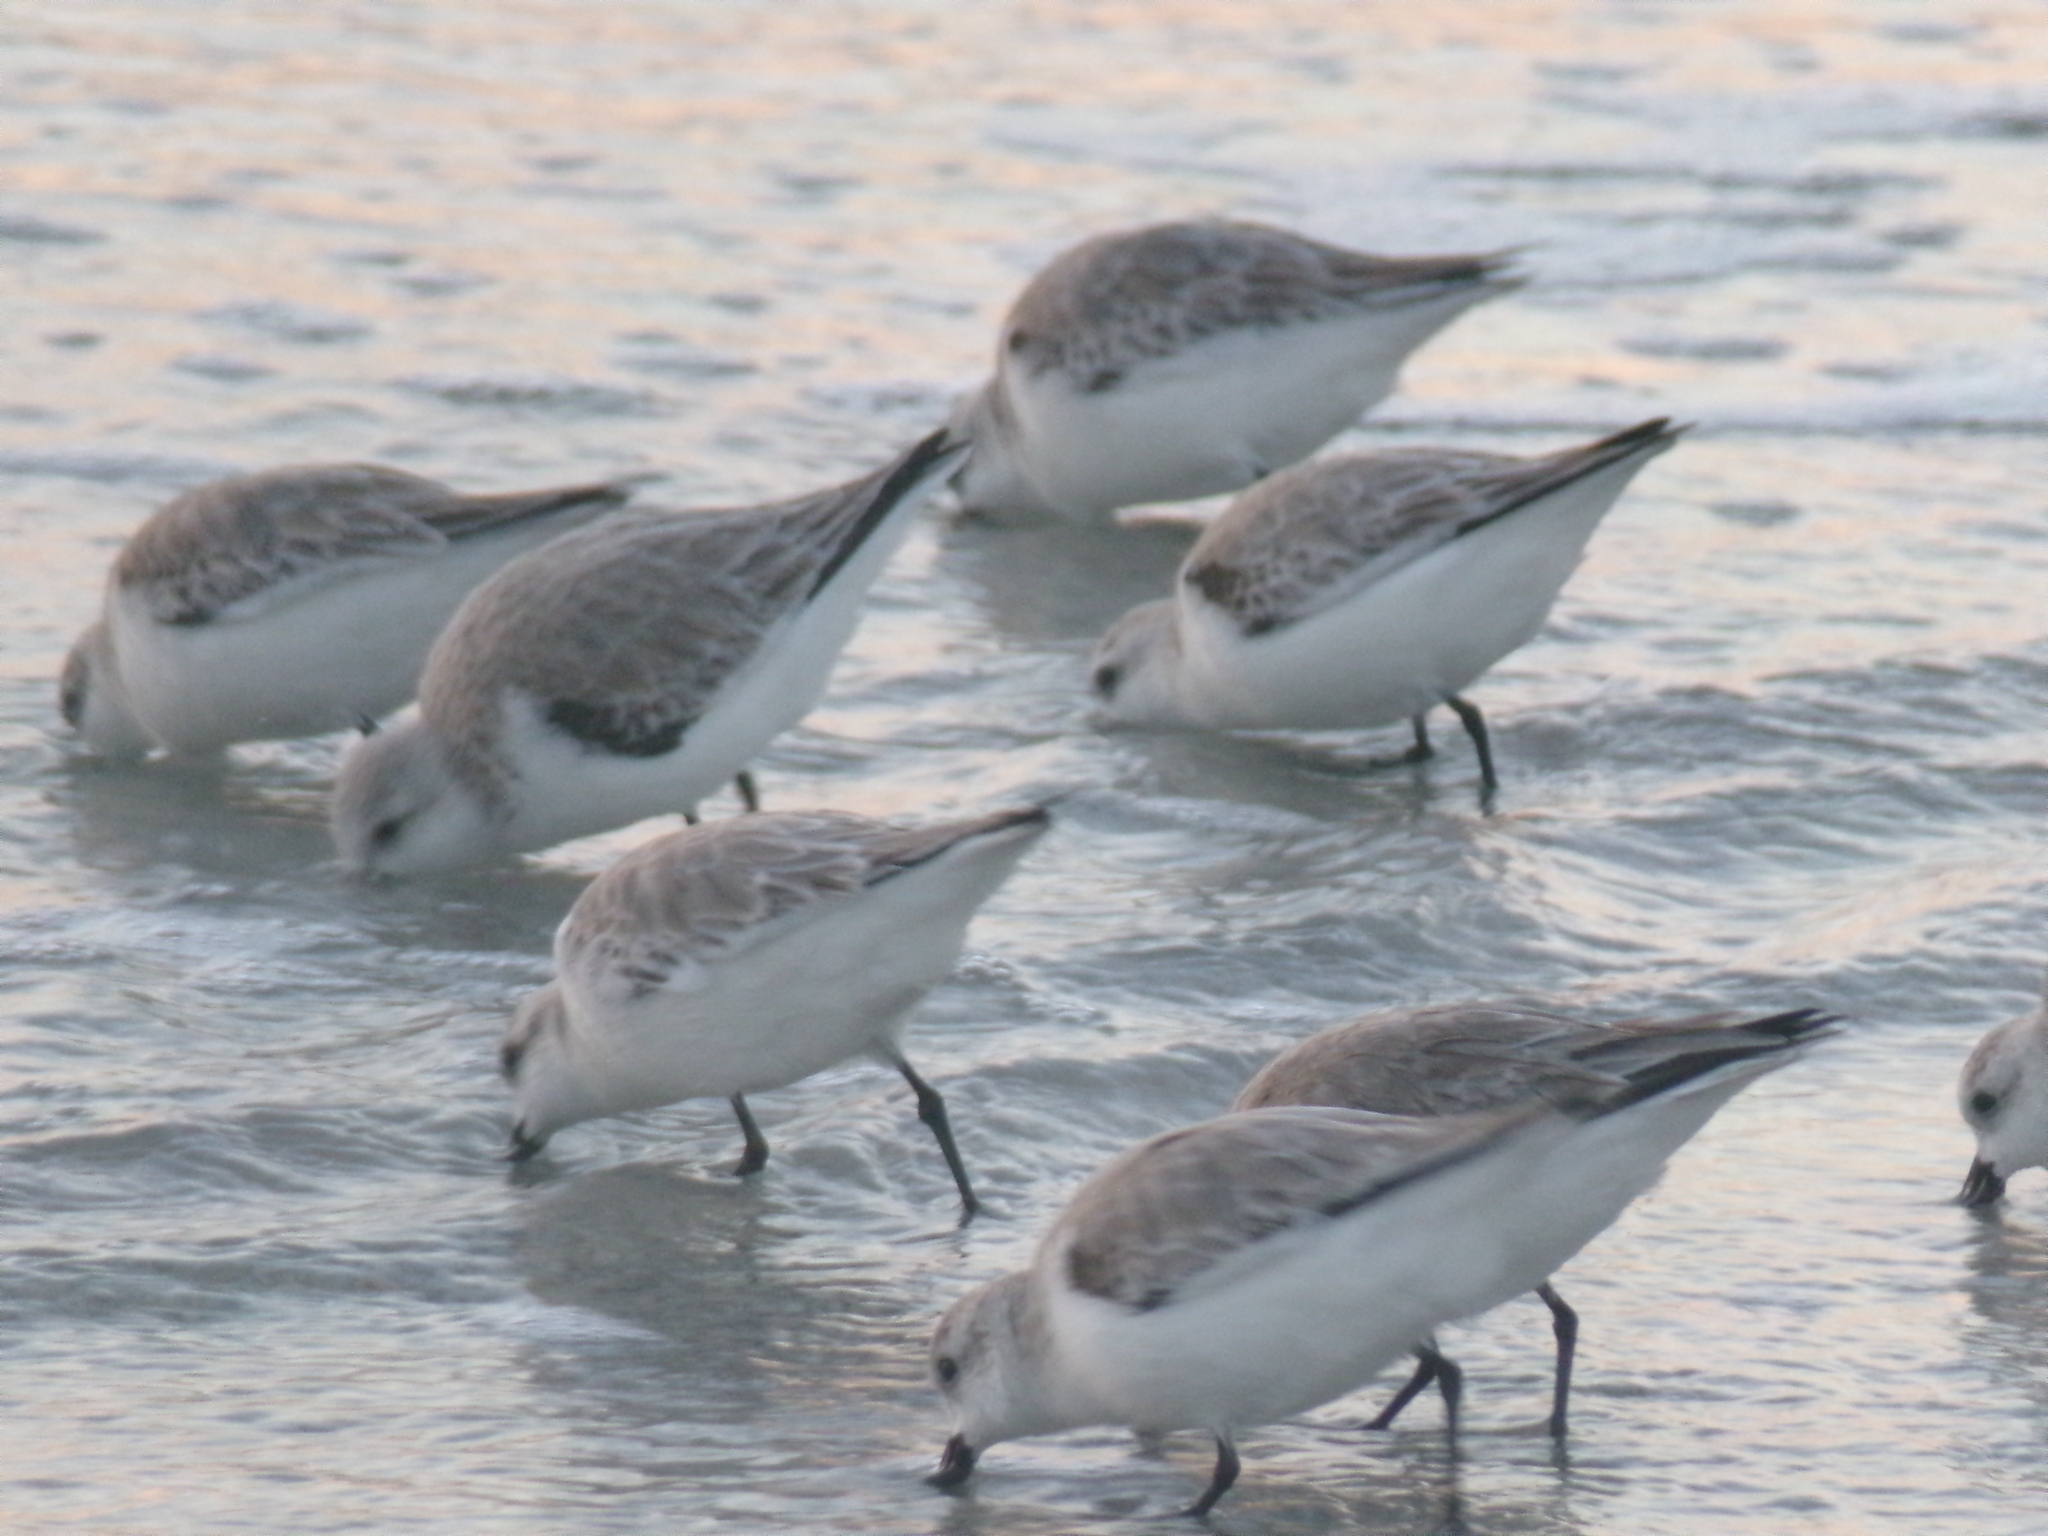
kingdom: Animalia
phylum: Chordata
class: Aves
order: Charadriiformes
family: Scolopacidae
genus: Calidris
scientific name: Calidris alba
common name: Sanderling
